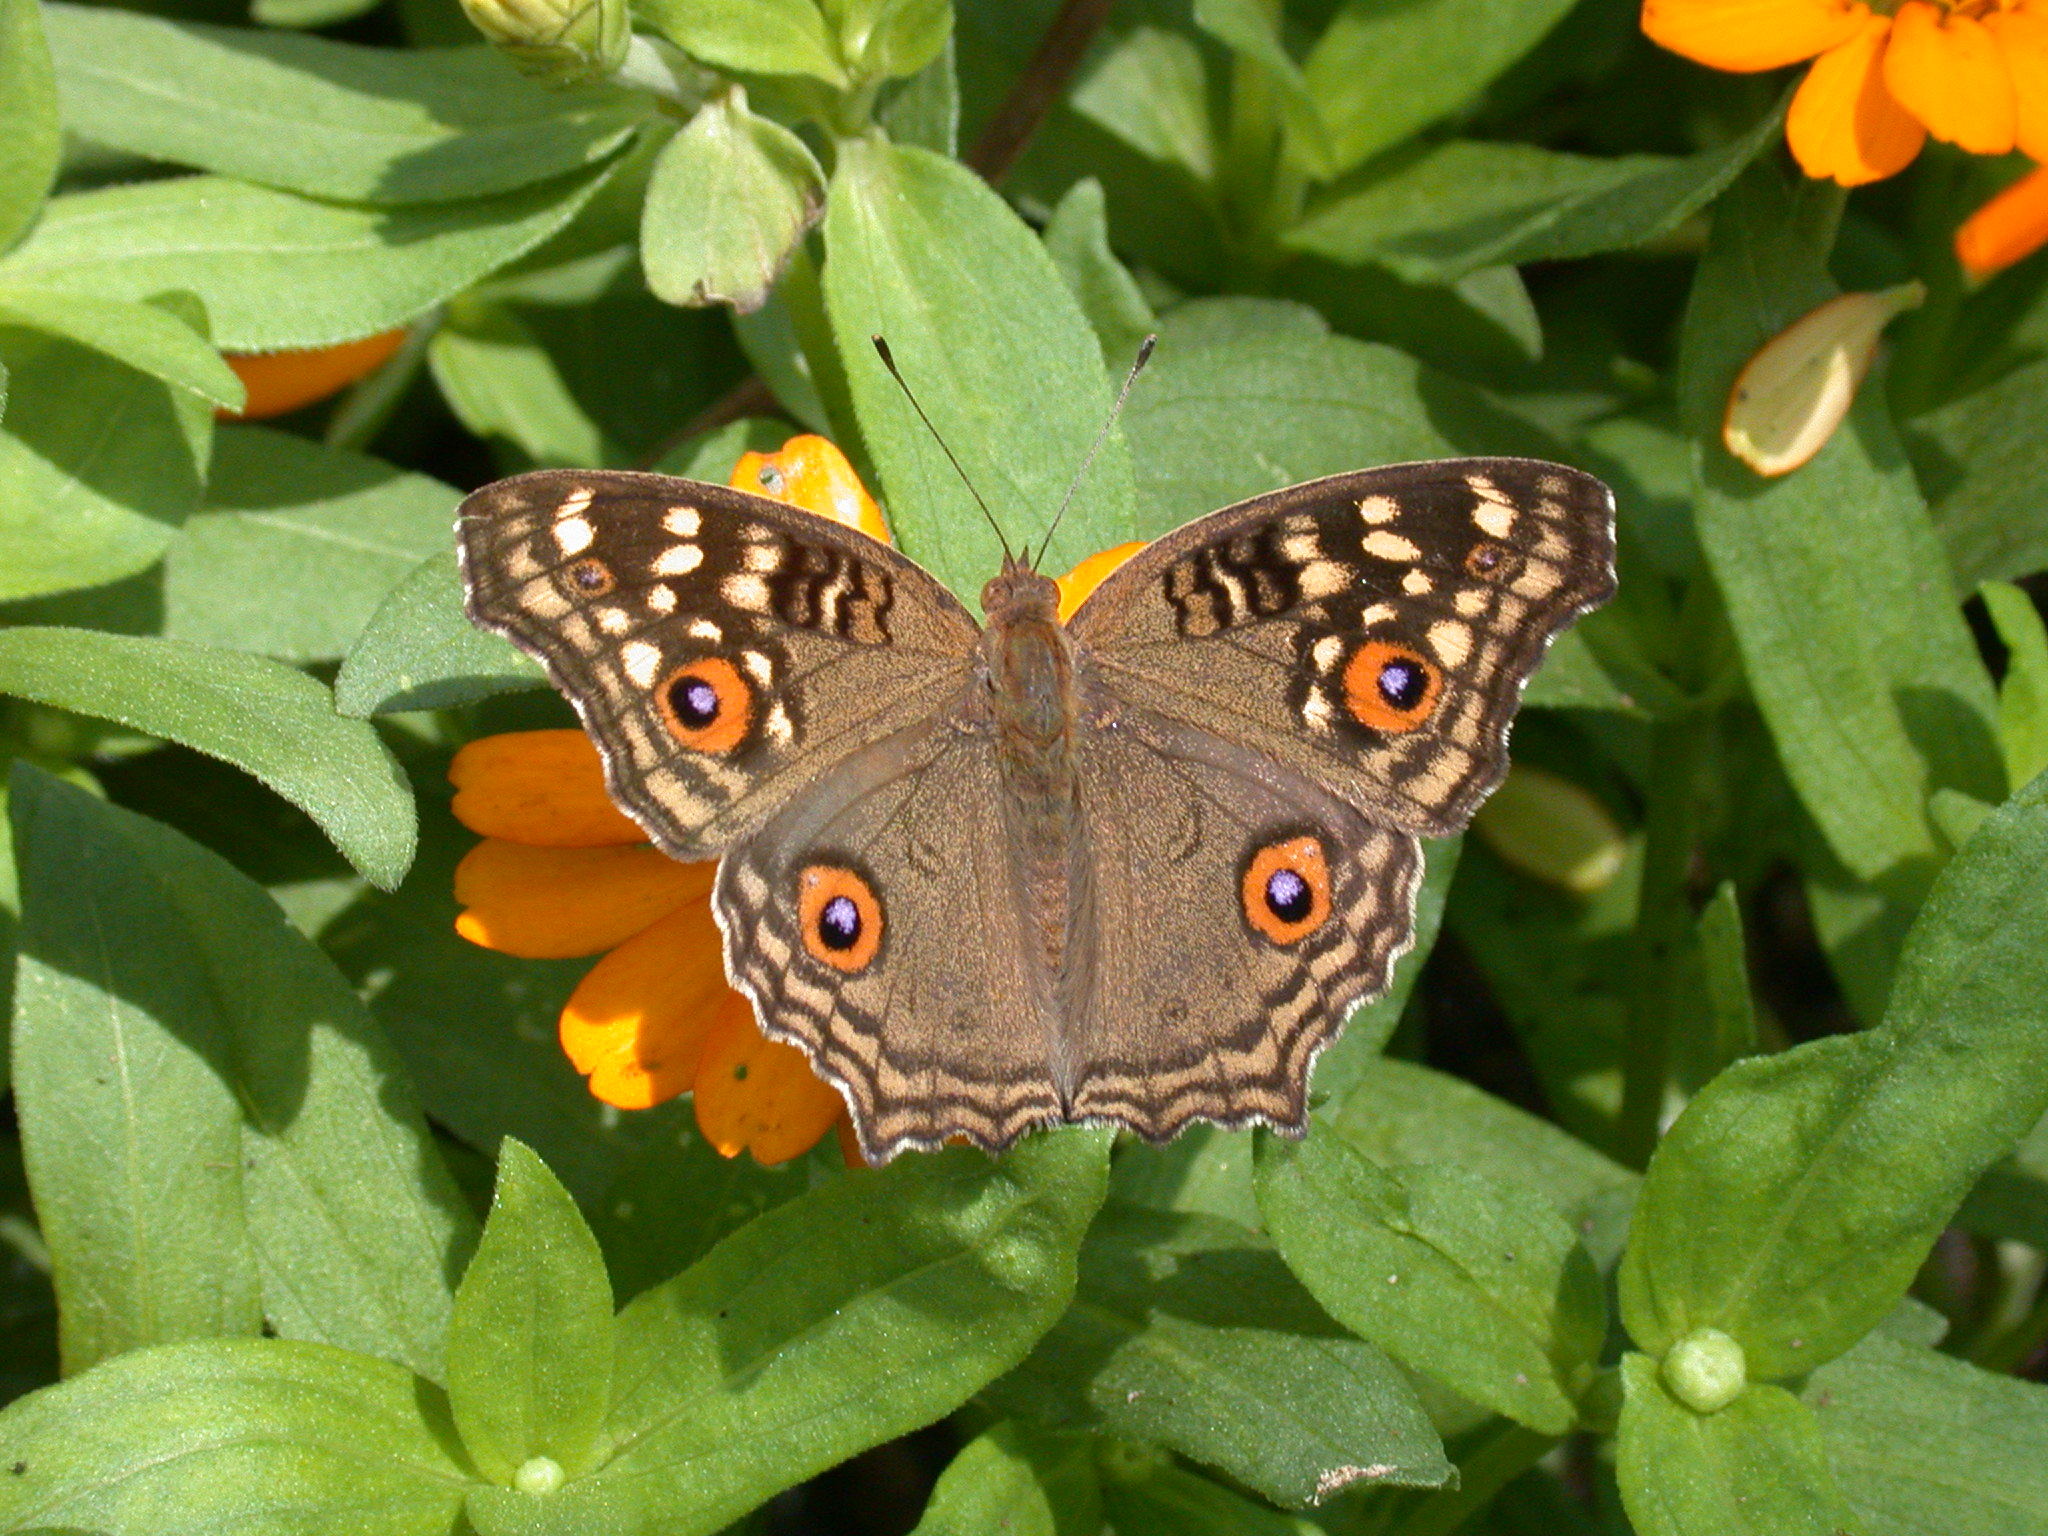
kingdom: Animalia
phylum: Arthropoda
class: Insecta
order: Lepidoptera
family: Nymphalidae
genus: Junonia
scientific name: Junonia lemonias
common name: Lemon pansy
